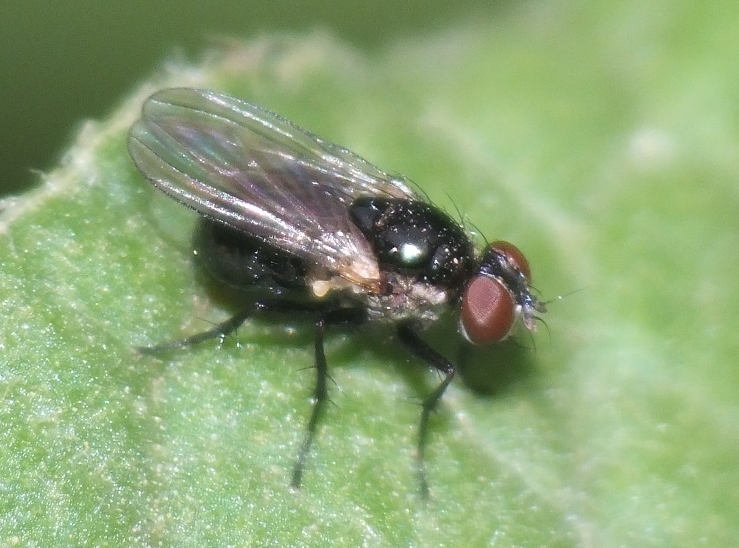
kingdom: Animalia
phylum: Arthropoda
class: Insecta
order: Diptera
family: Muscidae
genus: Coenosia
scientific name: Coenosia atra
